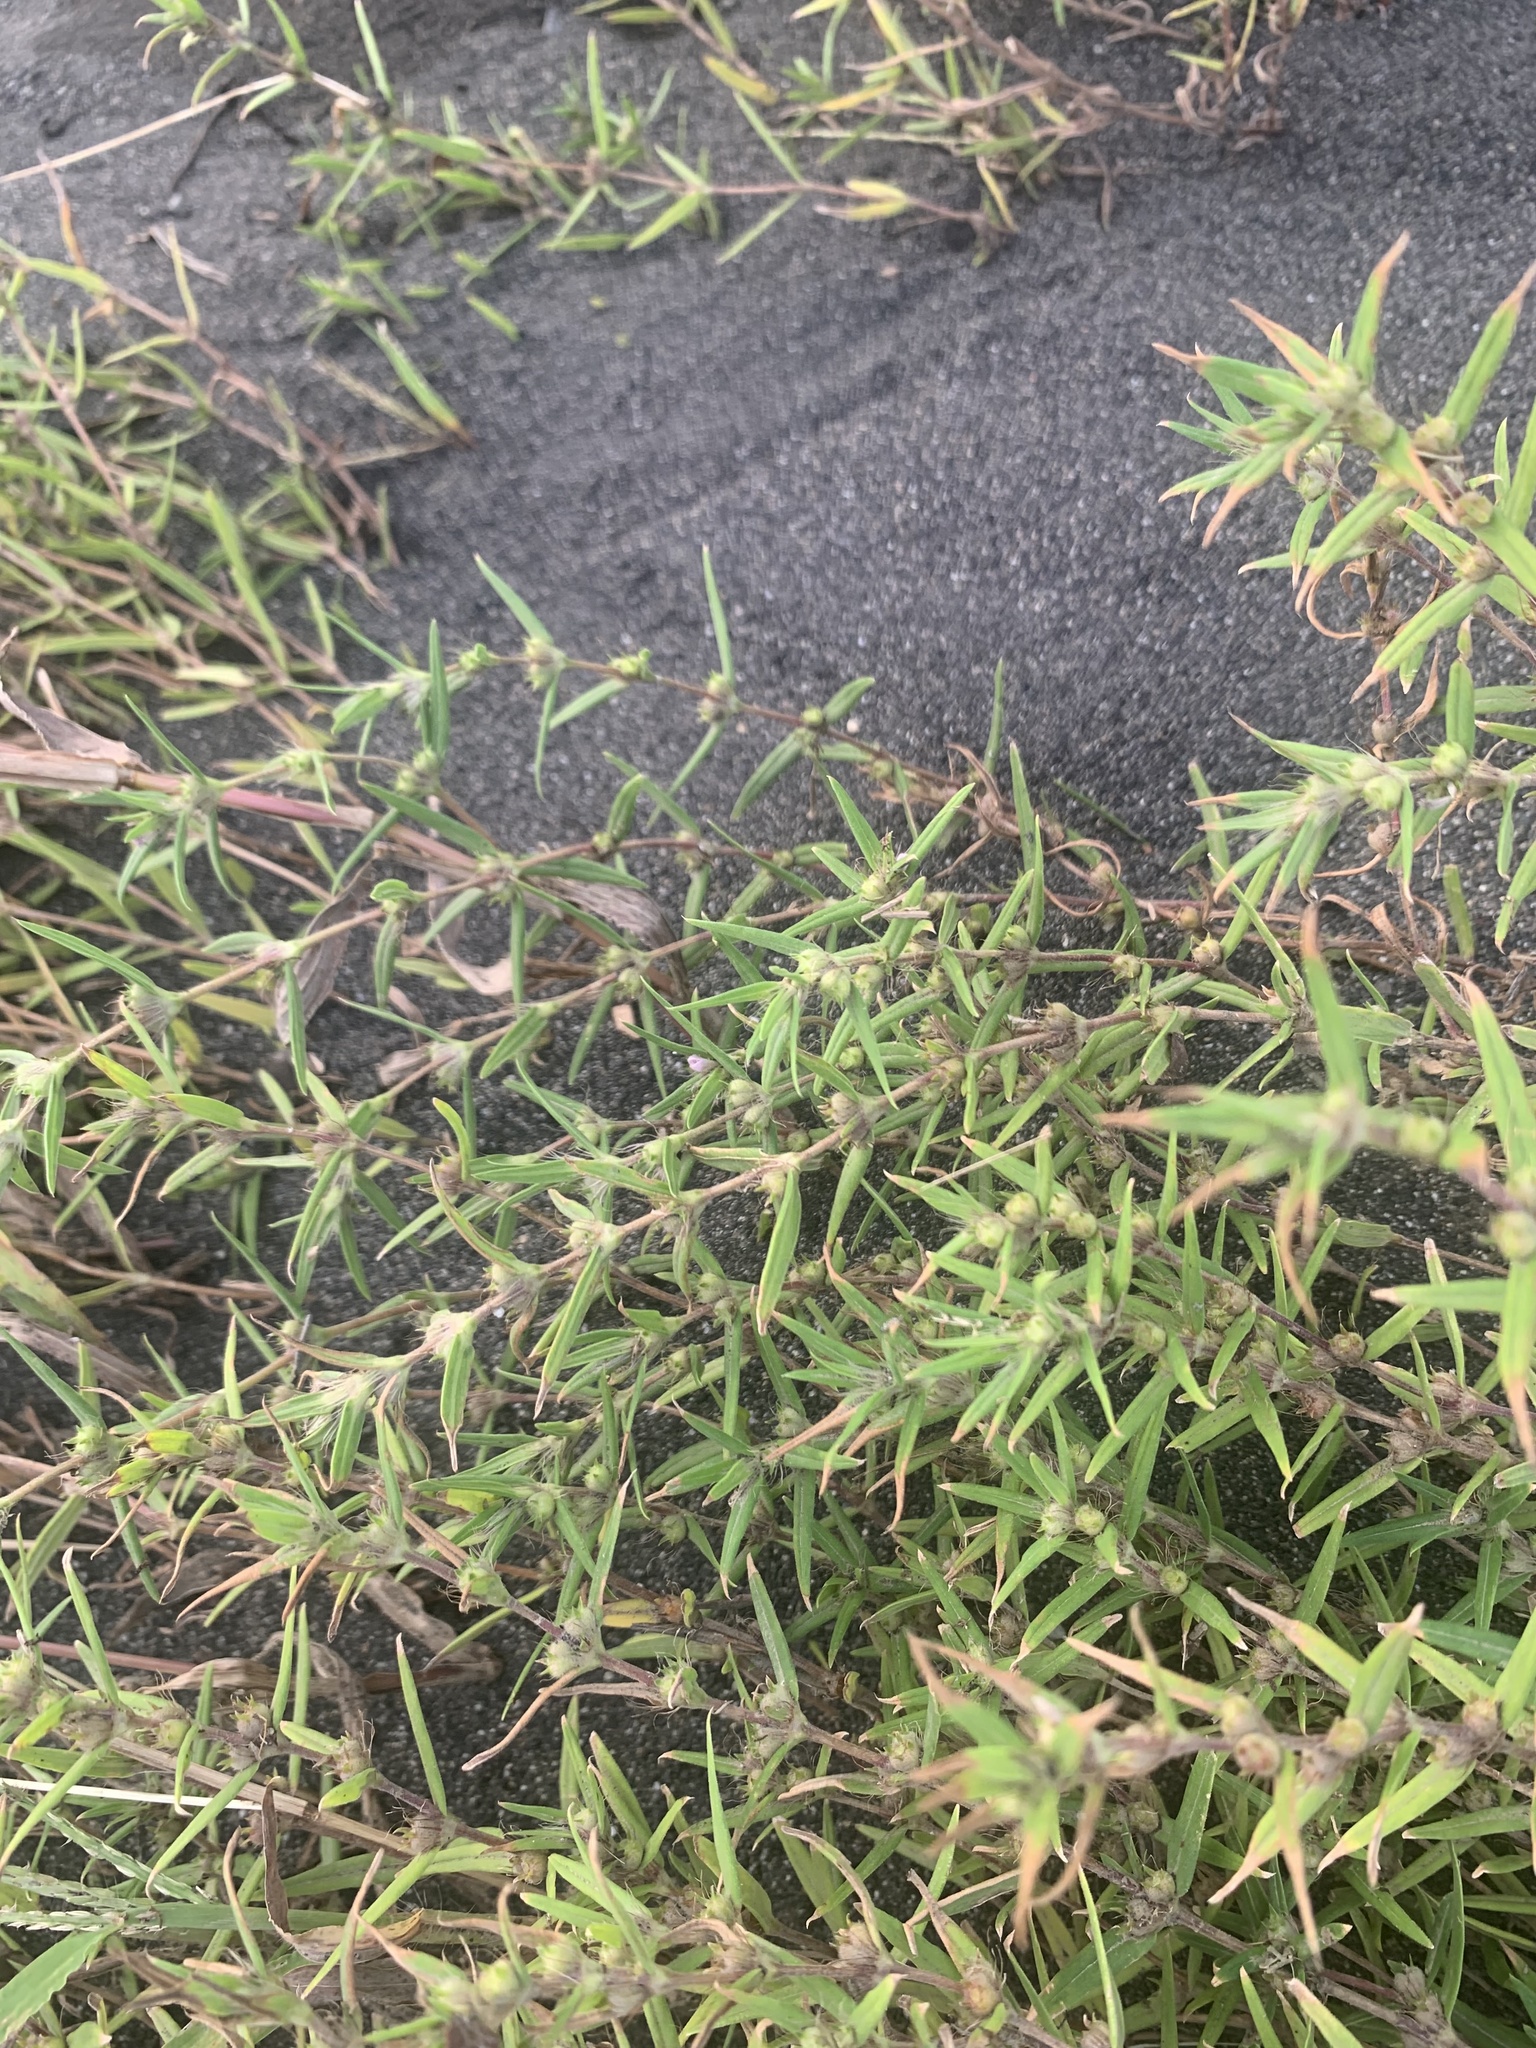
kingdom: Plantae
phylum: Tracheophyta
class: Magnoliopsida
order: Gentianales
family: Rubiaceae
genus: Hexasepalum
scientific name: Hexasepalum teres
